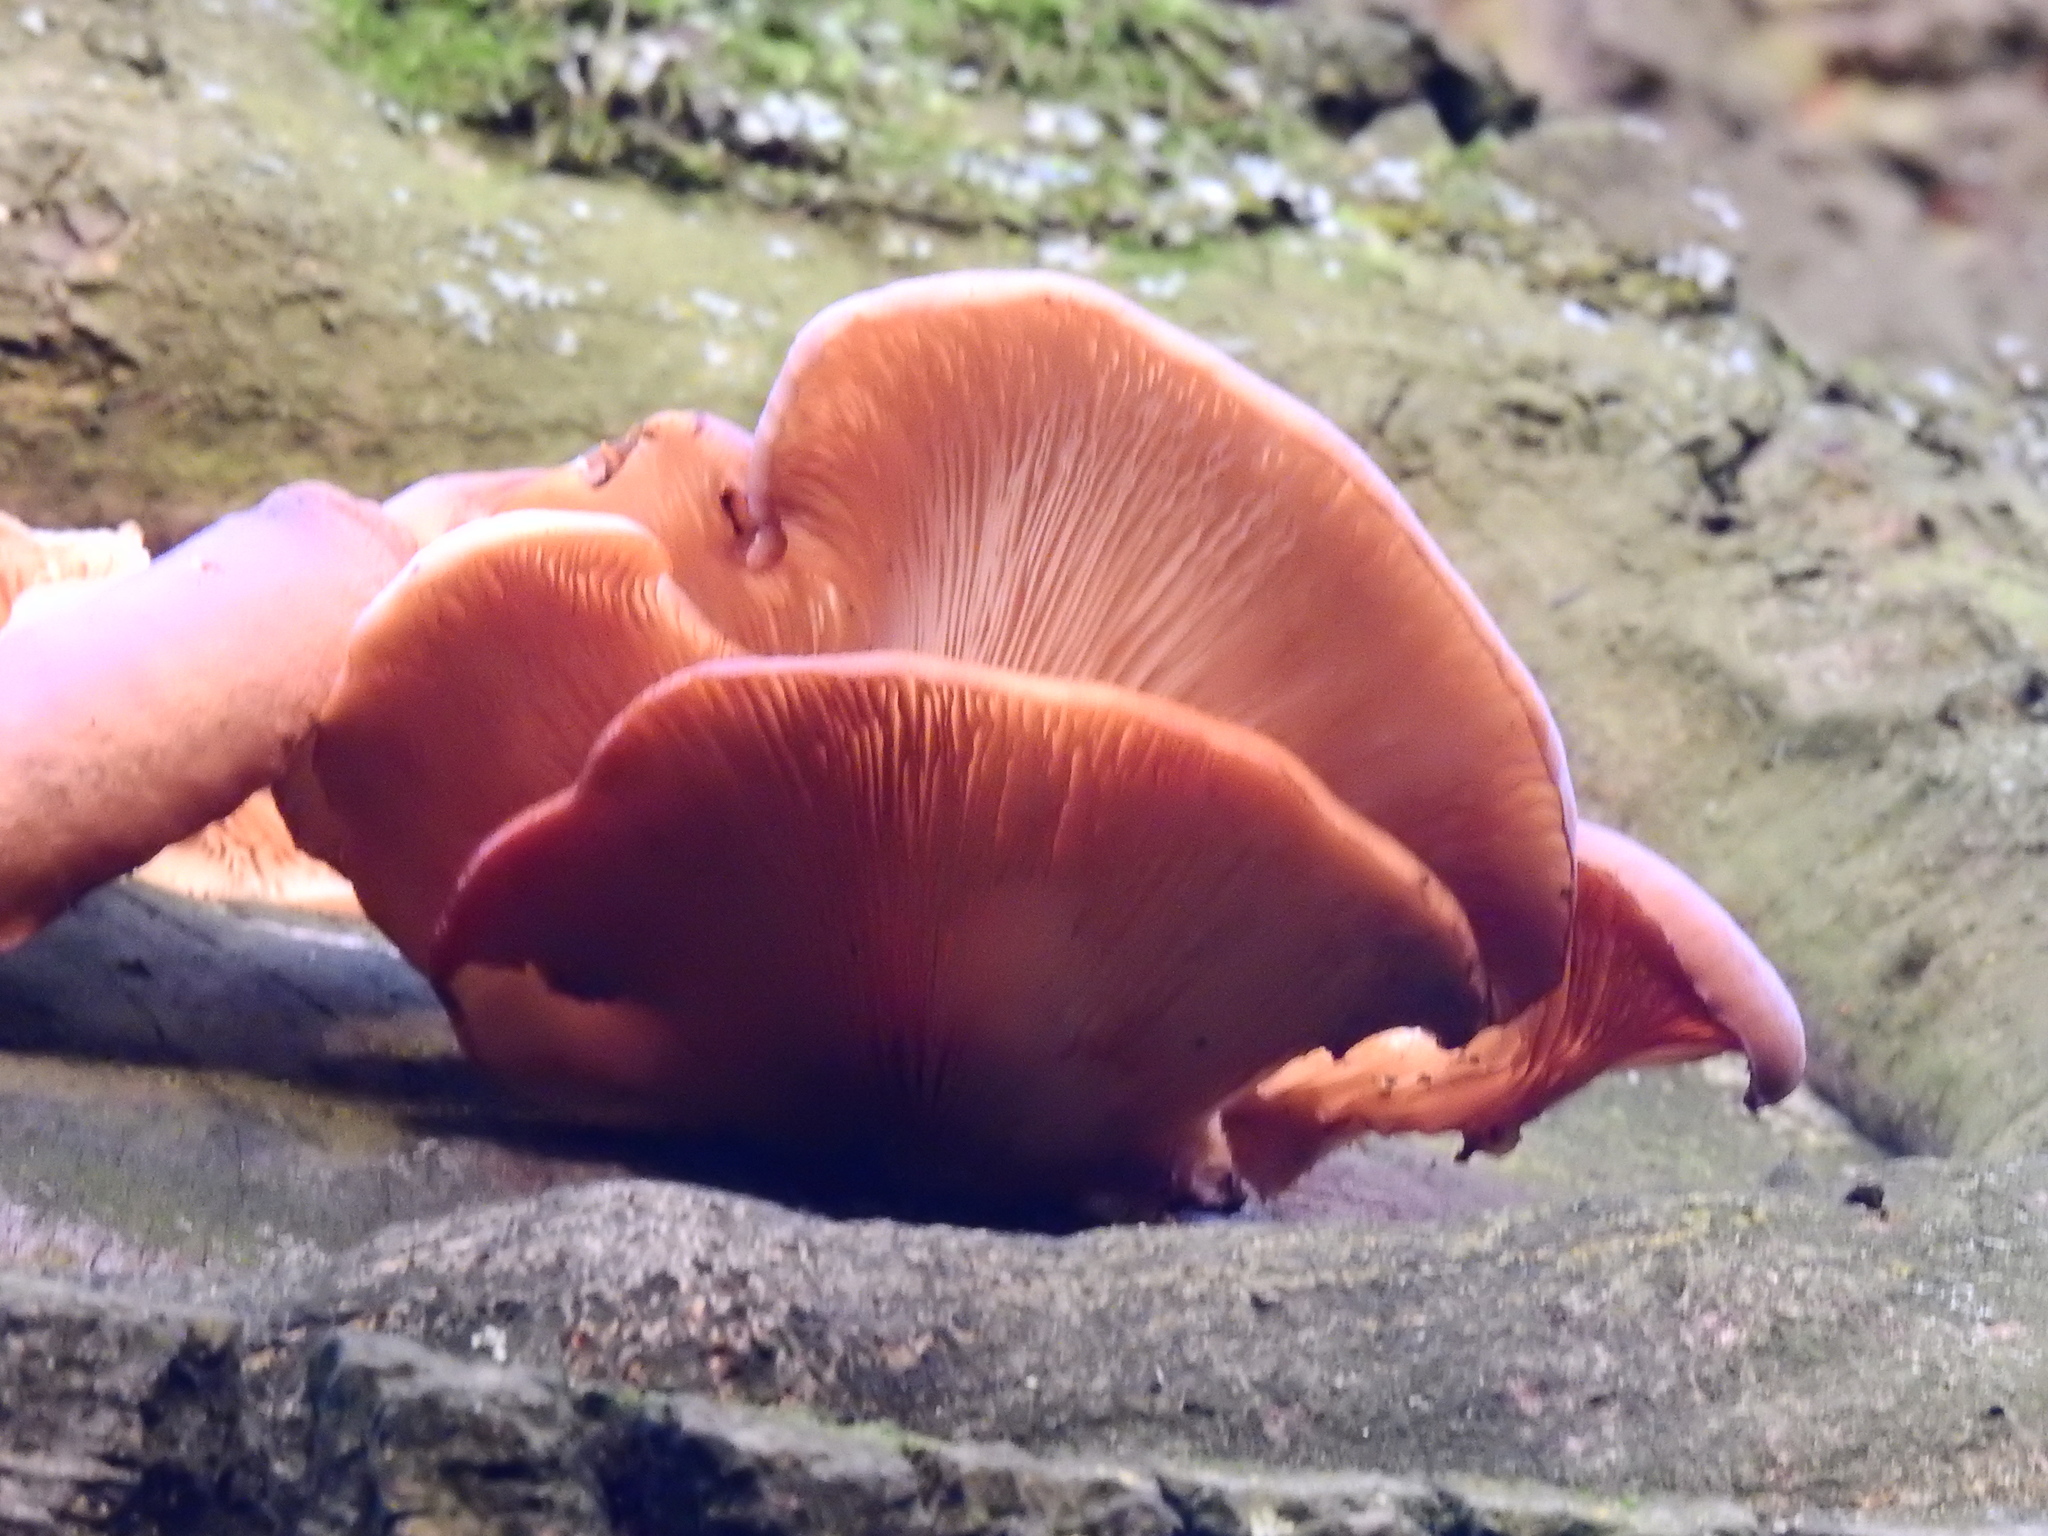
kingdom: Fungi
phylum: Basidiomycota
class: Agaricomycetes
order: Agaricales
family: Pleurotaceae
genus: Pleurotus
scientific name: Pleurotus ostreatus
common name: Oyster mushroom
